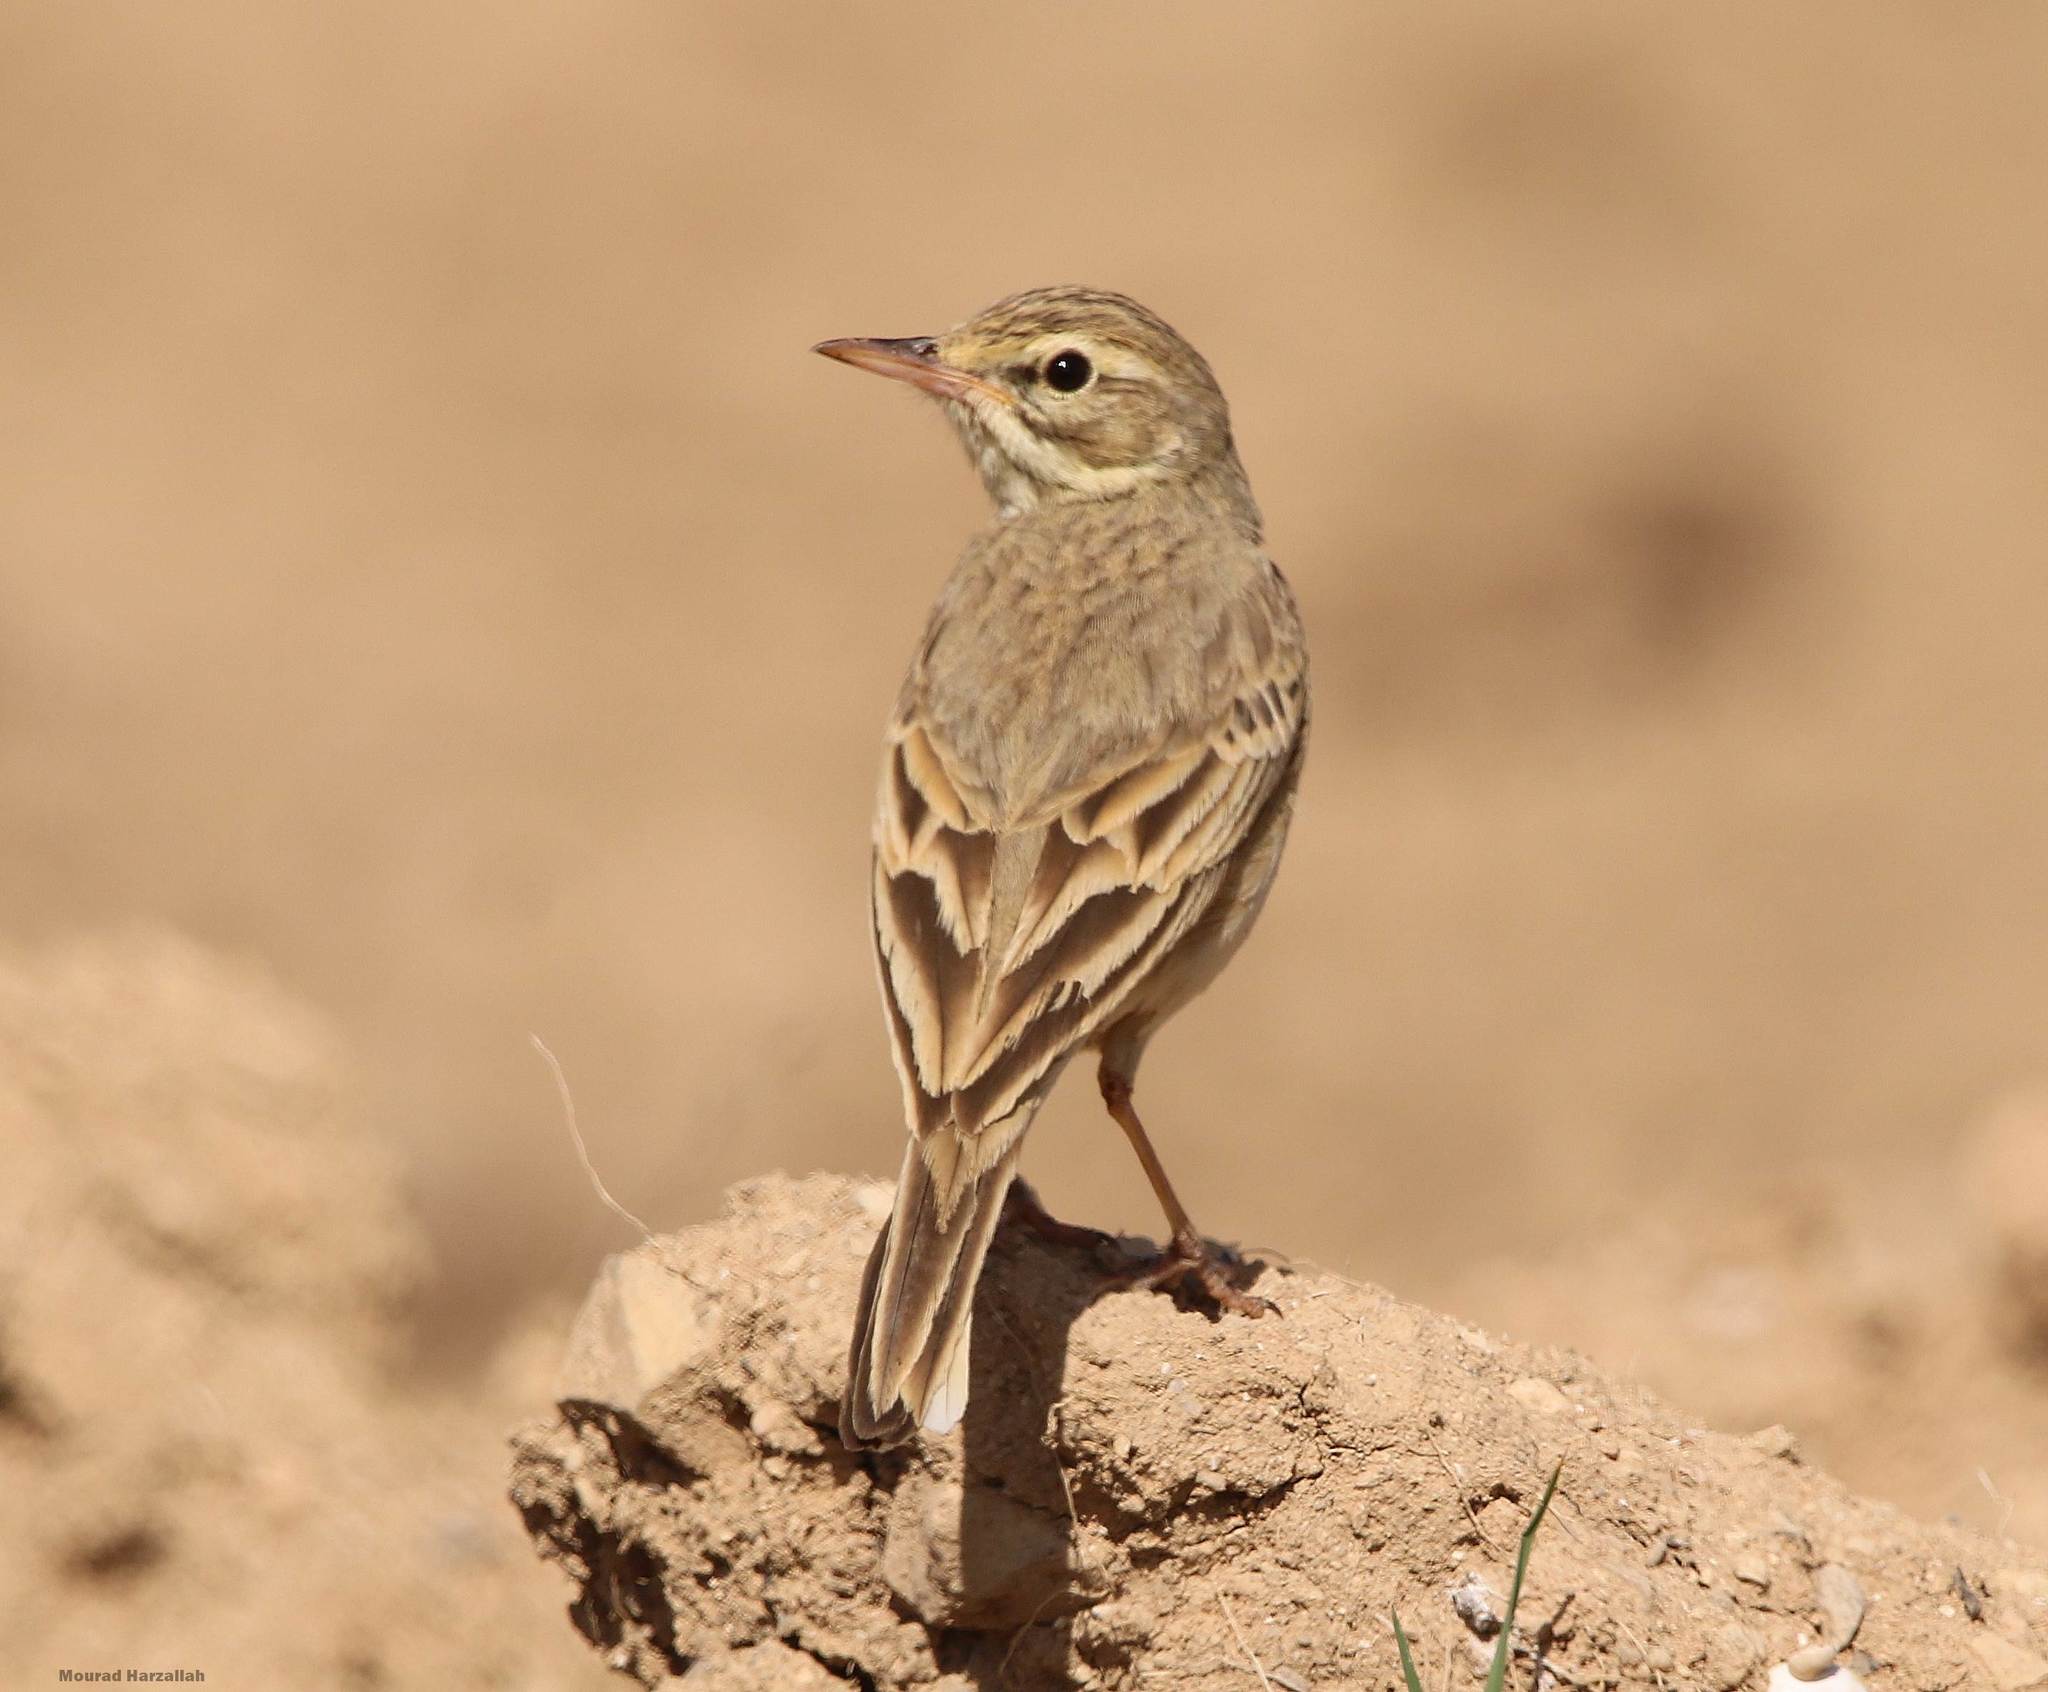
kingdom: Animalia
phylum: Chordata
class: Aves
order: Passeriformes
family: Motacillidae
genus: Anthus
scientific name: Anthus campestris
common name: Tawny pipit
